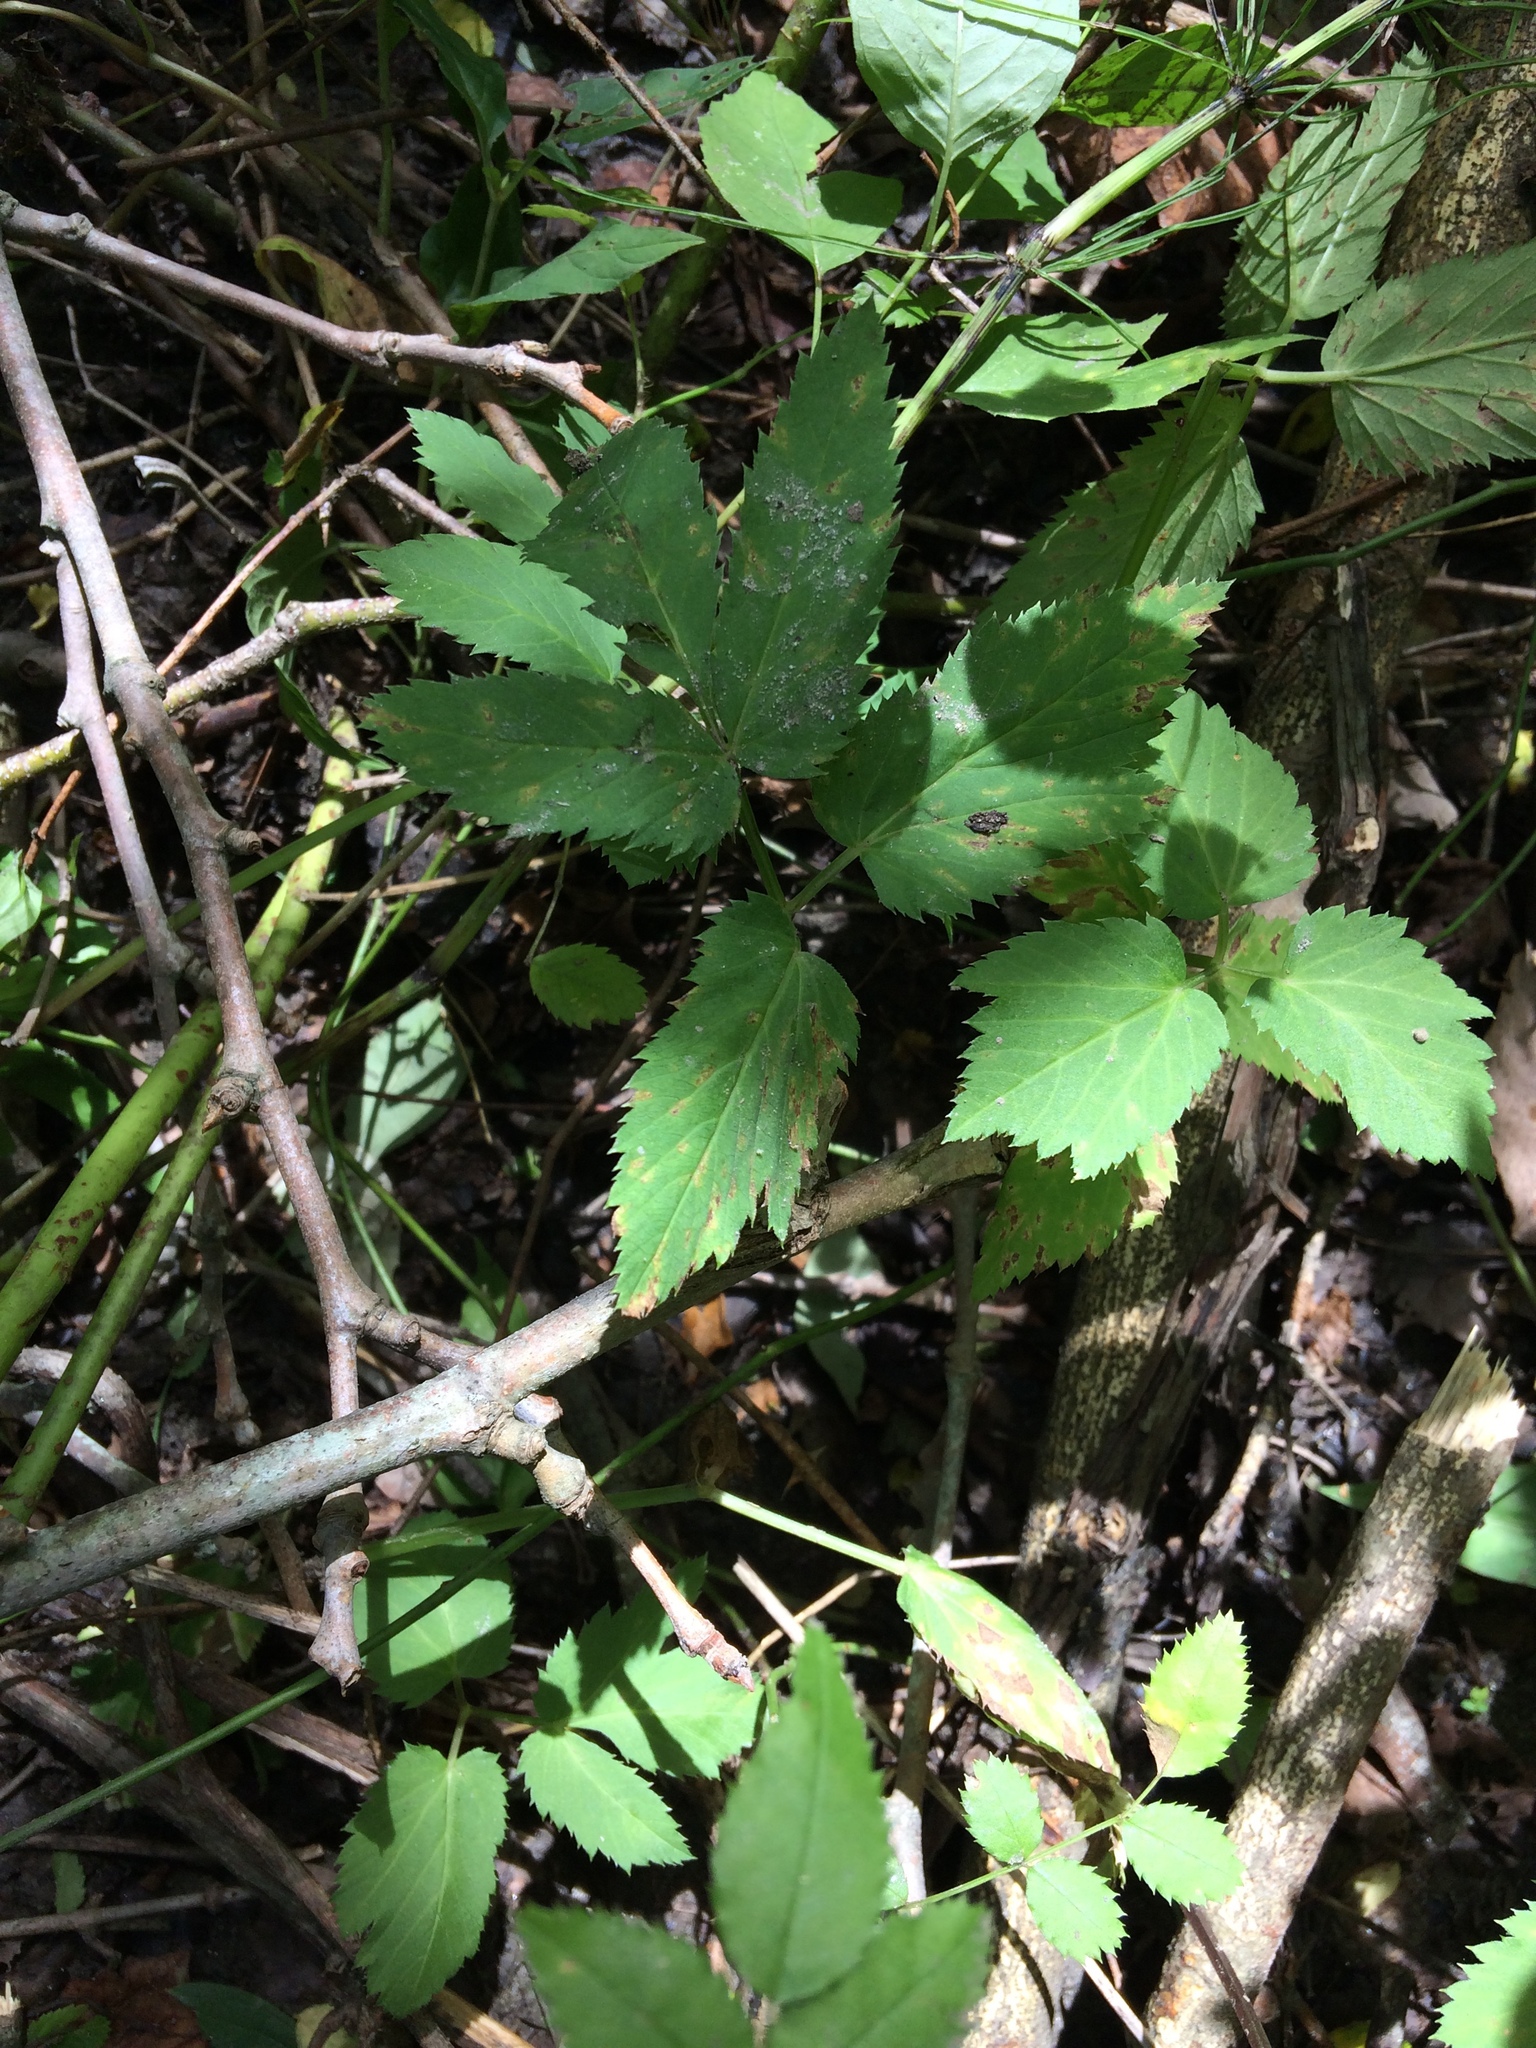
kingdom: Plantae
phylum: Tracheophyta
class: Magnoliopsida
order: Apiales
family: Apiaceae
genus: Aegopodium
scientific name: Aegopodium podagraria
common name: Ground-elder
